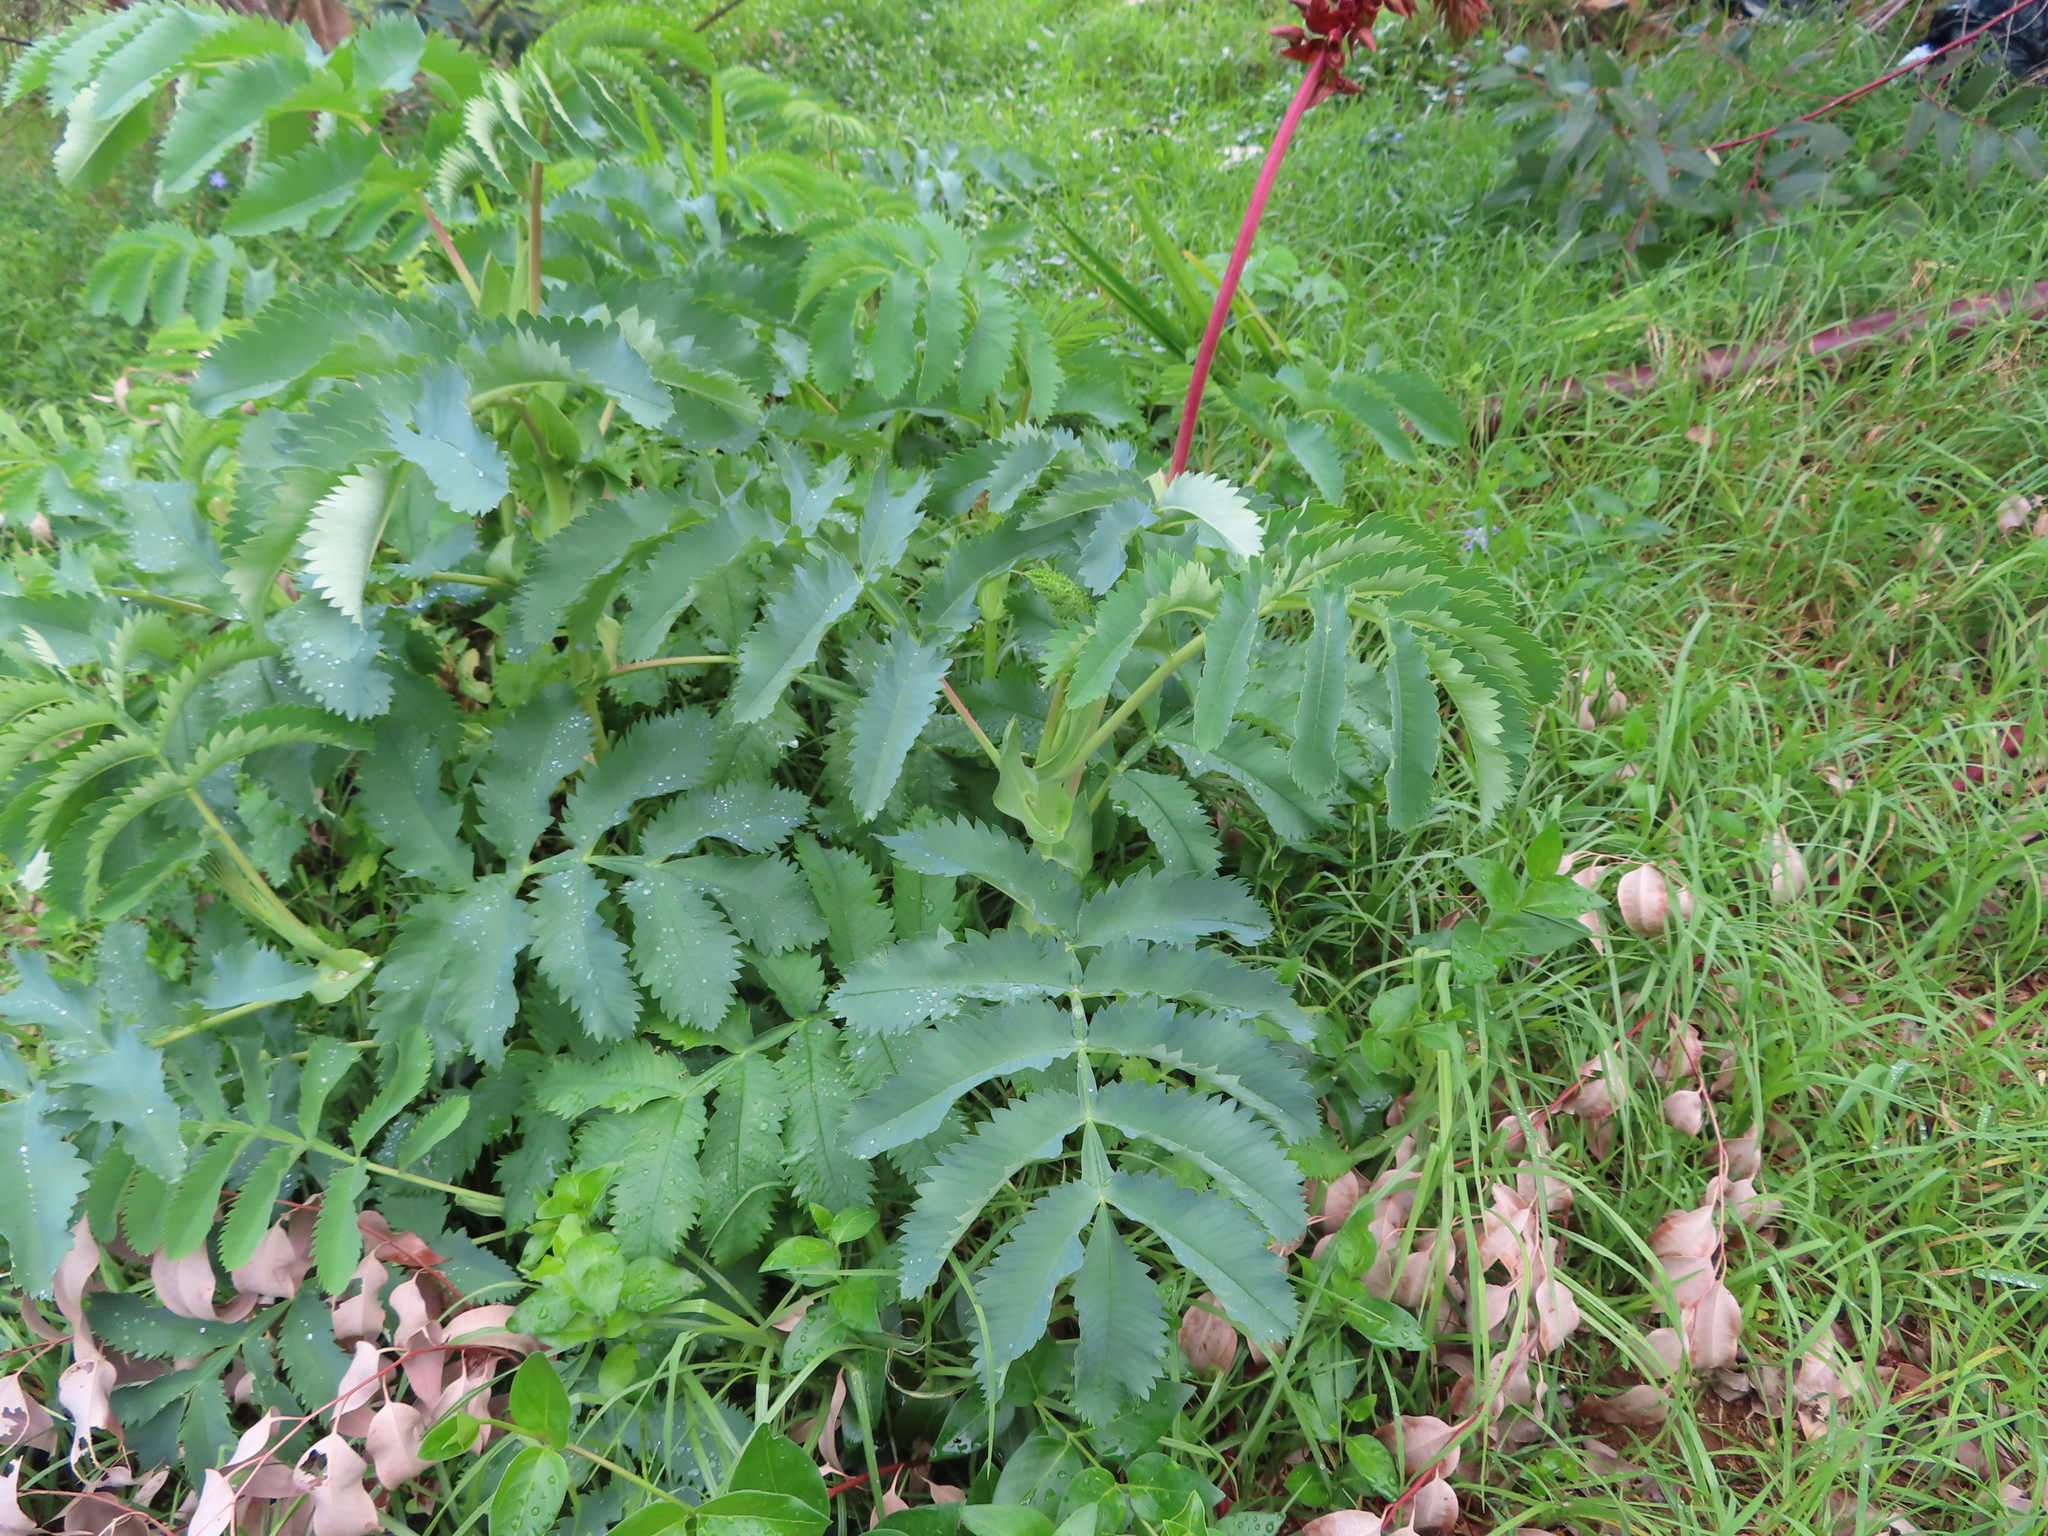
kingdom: Plantae
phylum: Tracheophyta
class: Magnoliopsida
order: Geraniales
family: Melianthaceae
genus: Melianthus
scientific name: Melianthus major
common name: Honey-flower
